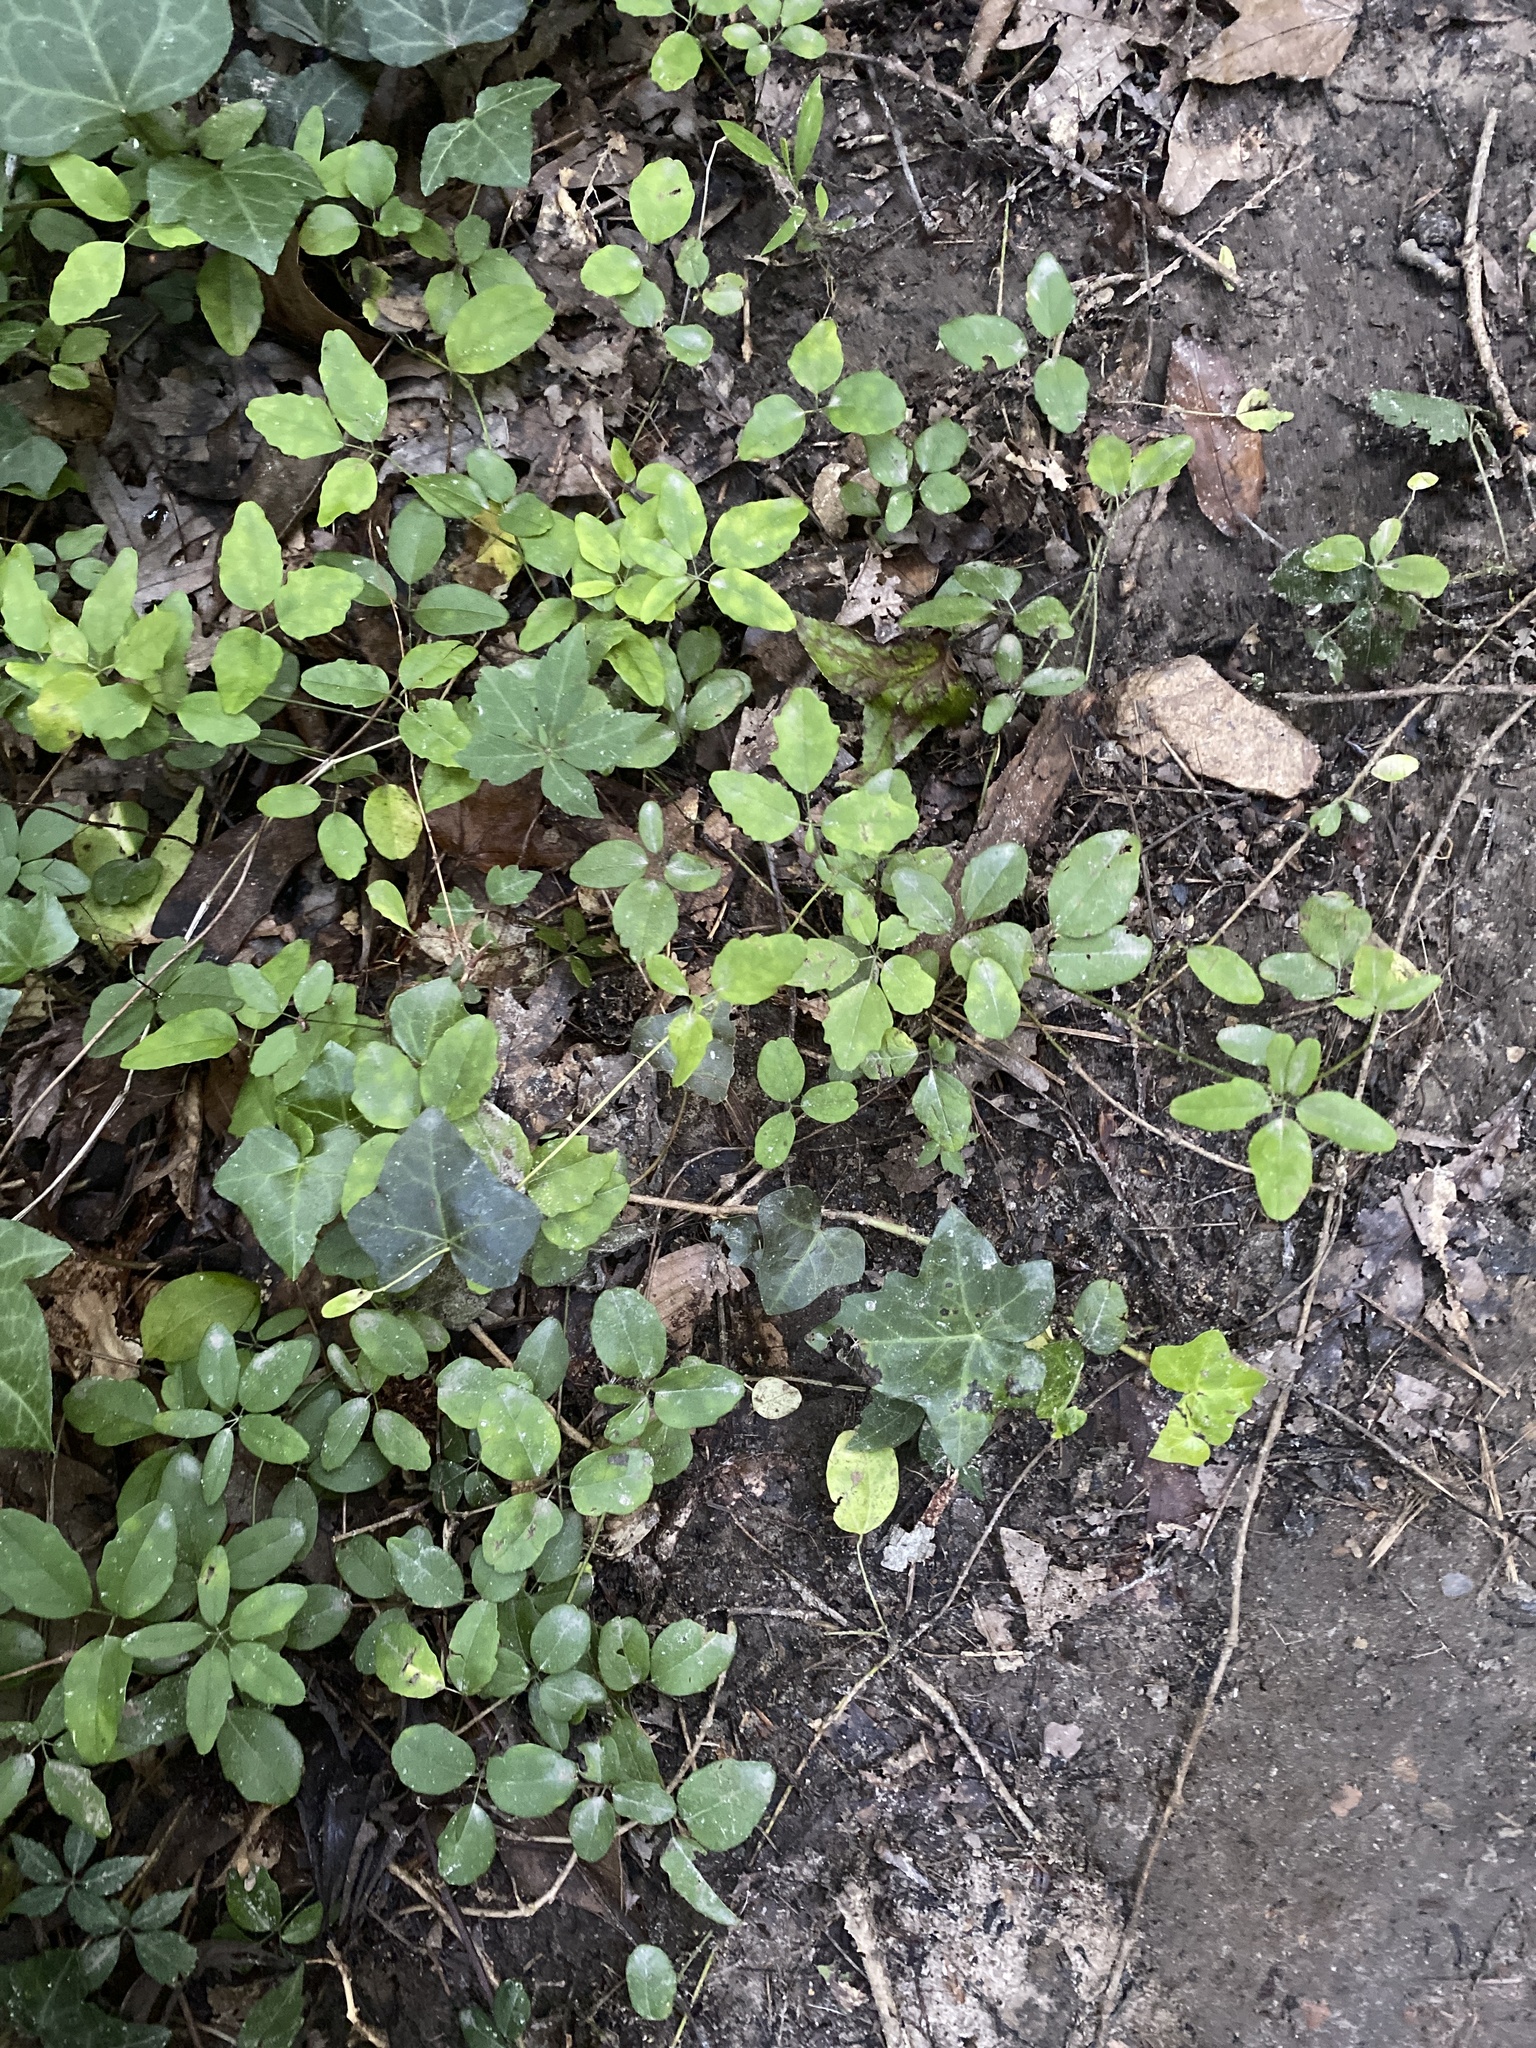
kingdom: Plantae
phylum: Tracheophyta
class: Magnoliopsida
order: Ranunculales
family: Lardizabalaceae
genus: Akebia
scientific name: Akebia quinata
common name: Five-leaf akebia
